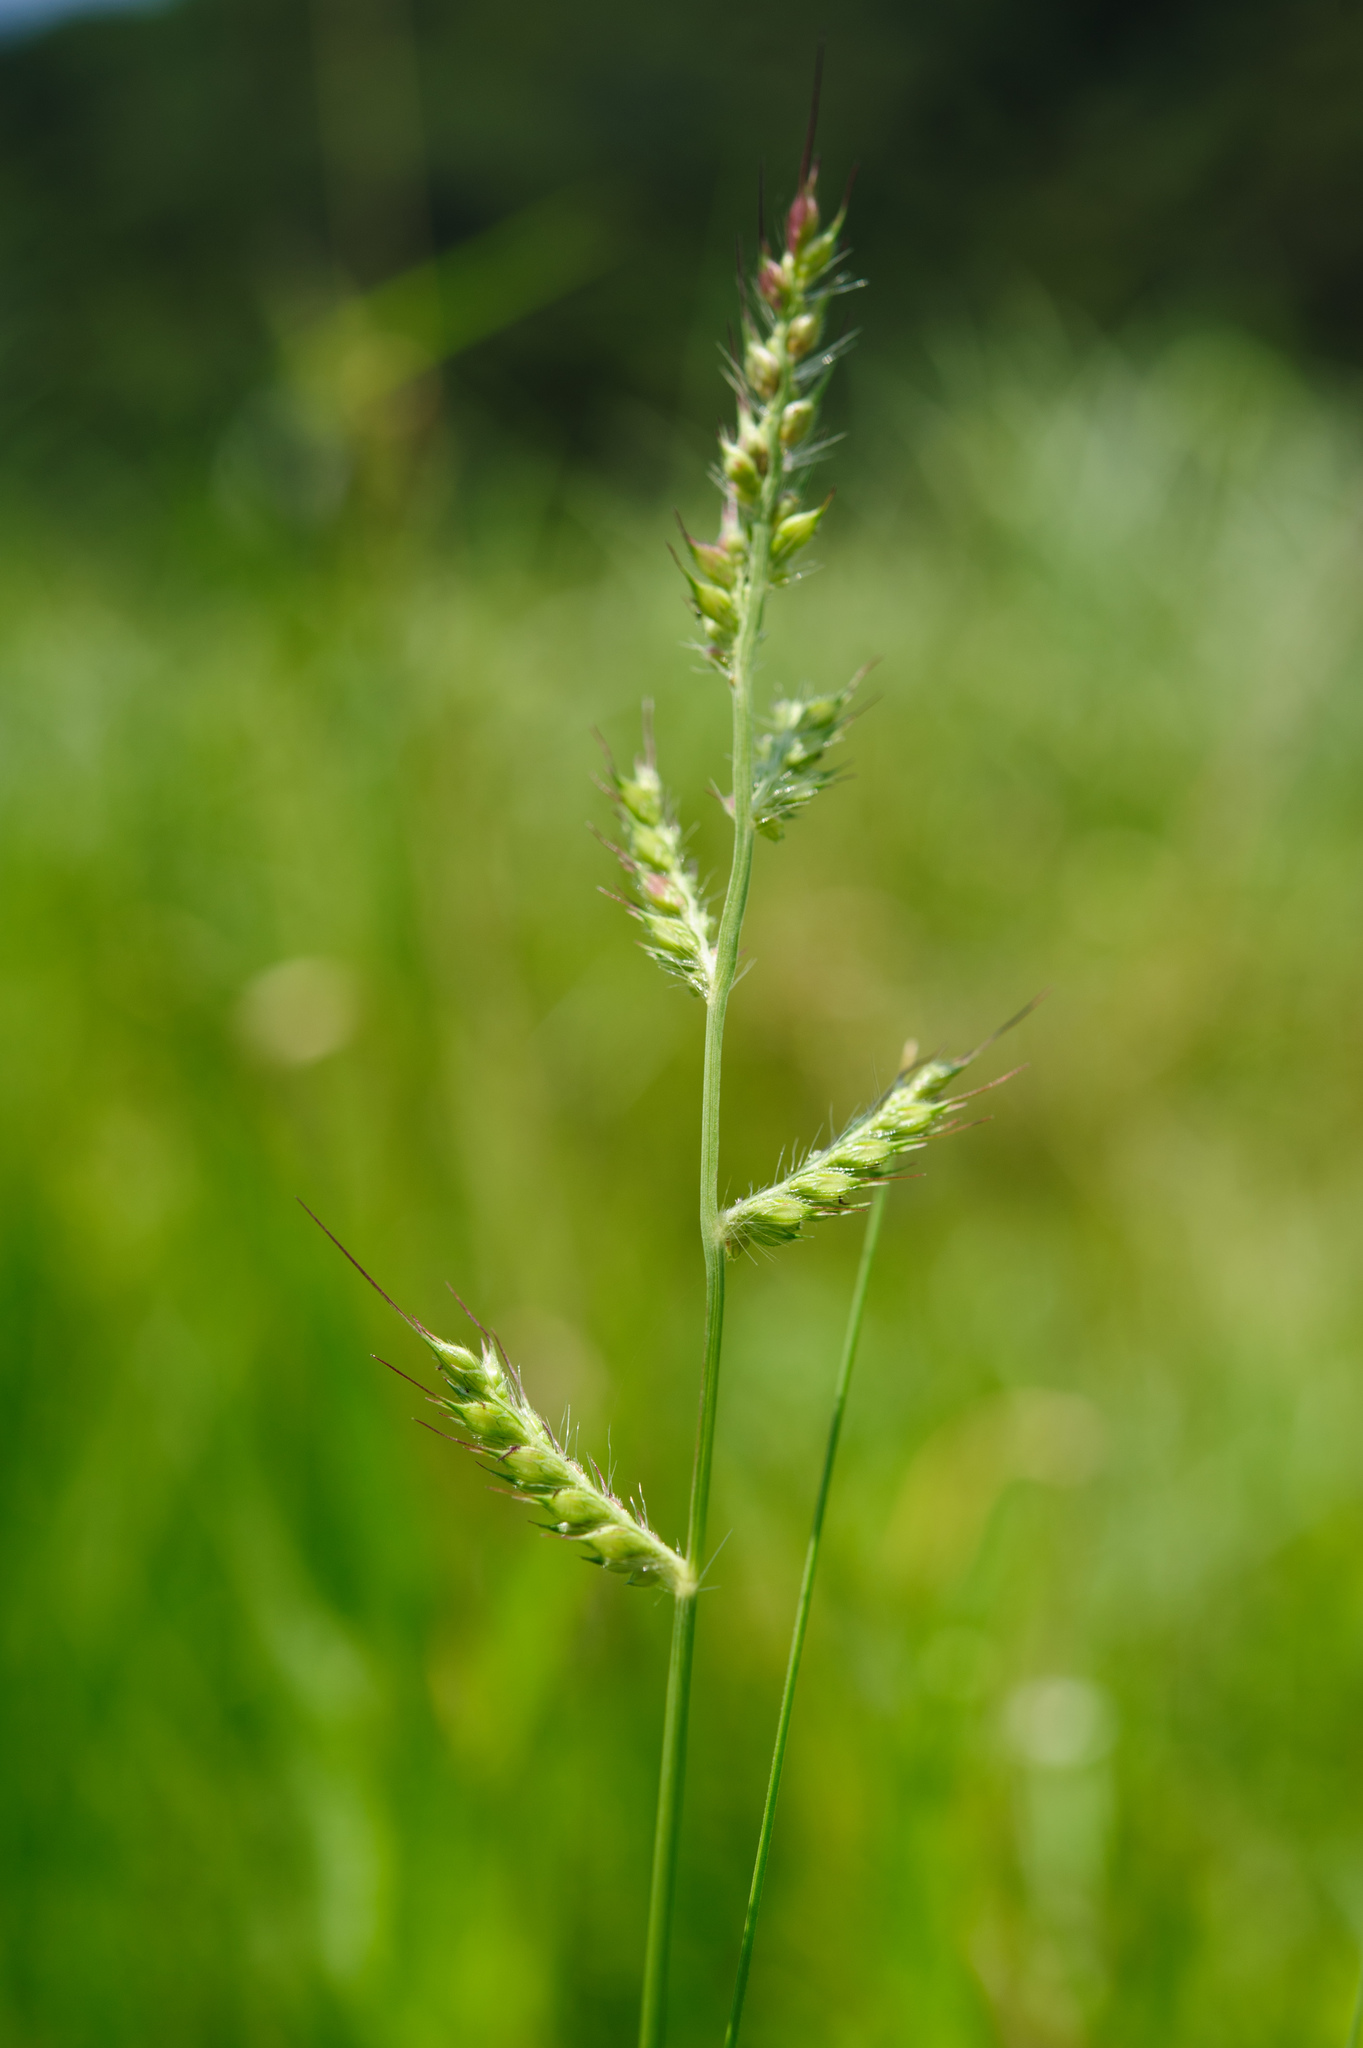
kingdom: Plantae
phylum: Tracheophyta
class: Liliopsida
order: Poales
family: Poaceae
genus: Echinochloa
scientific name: Echinochloa crus-galli
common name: Cockspur
